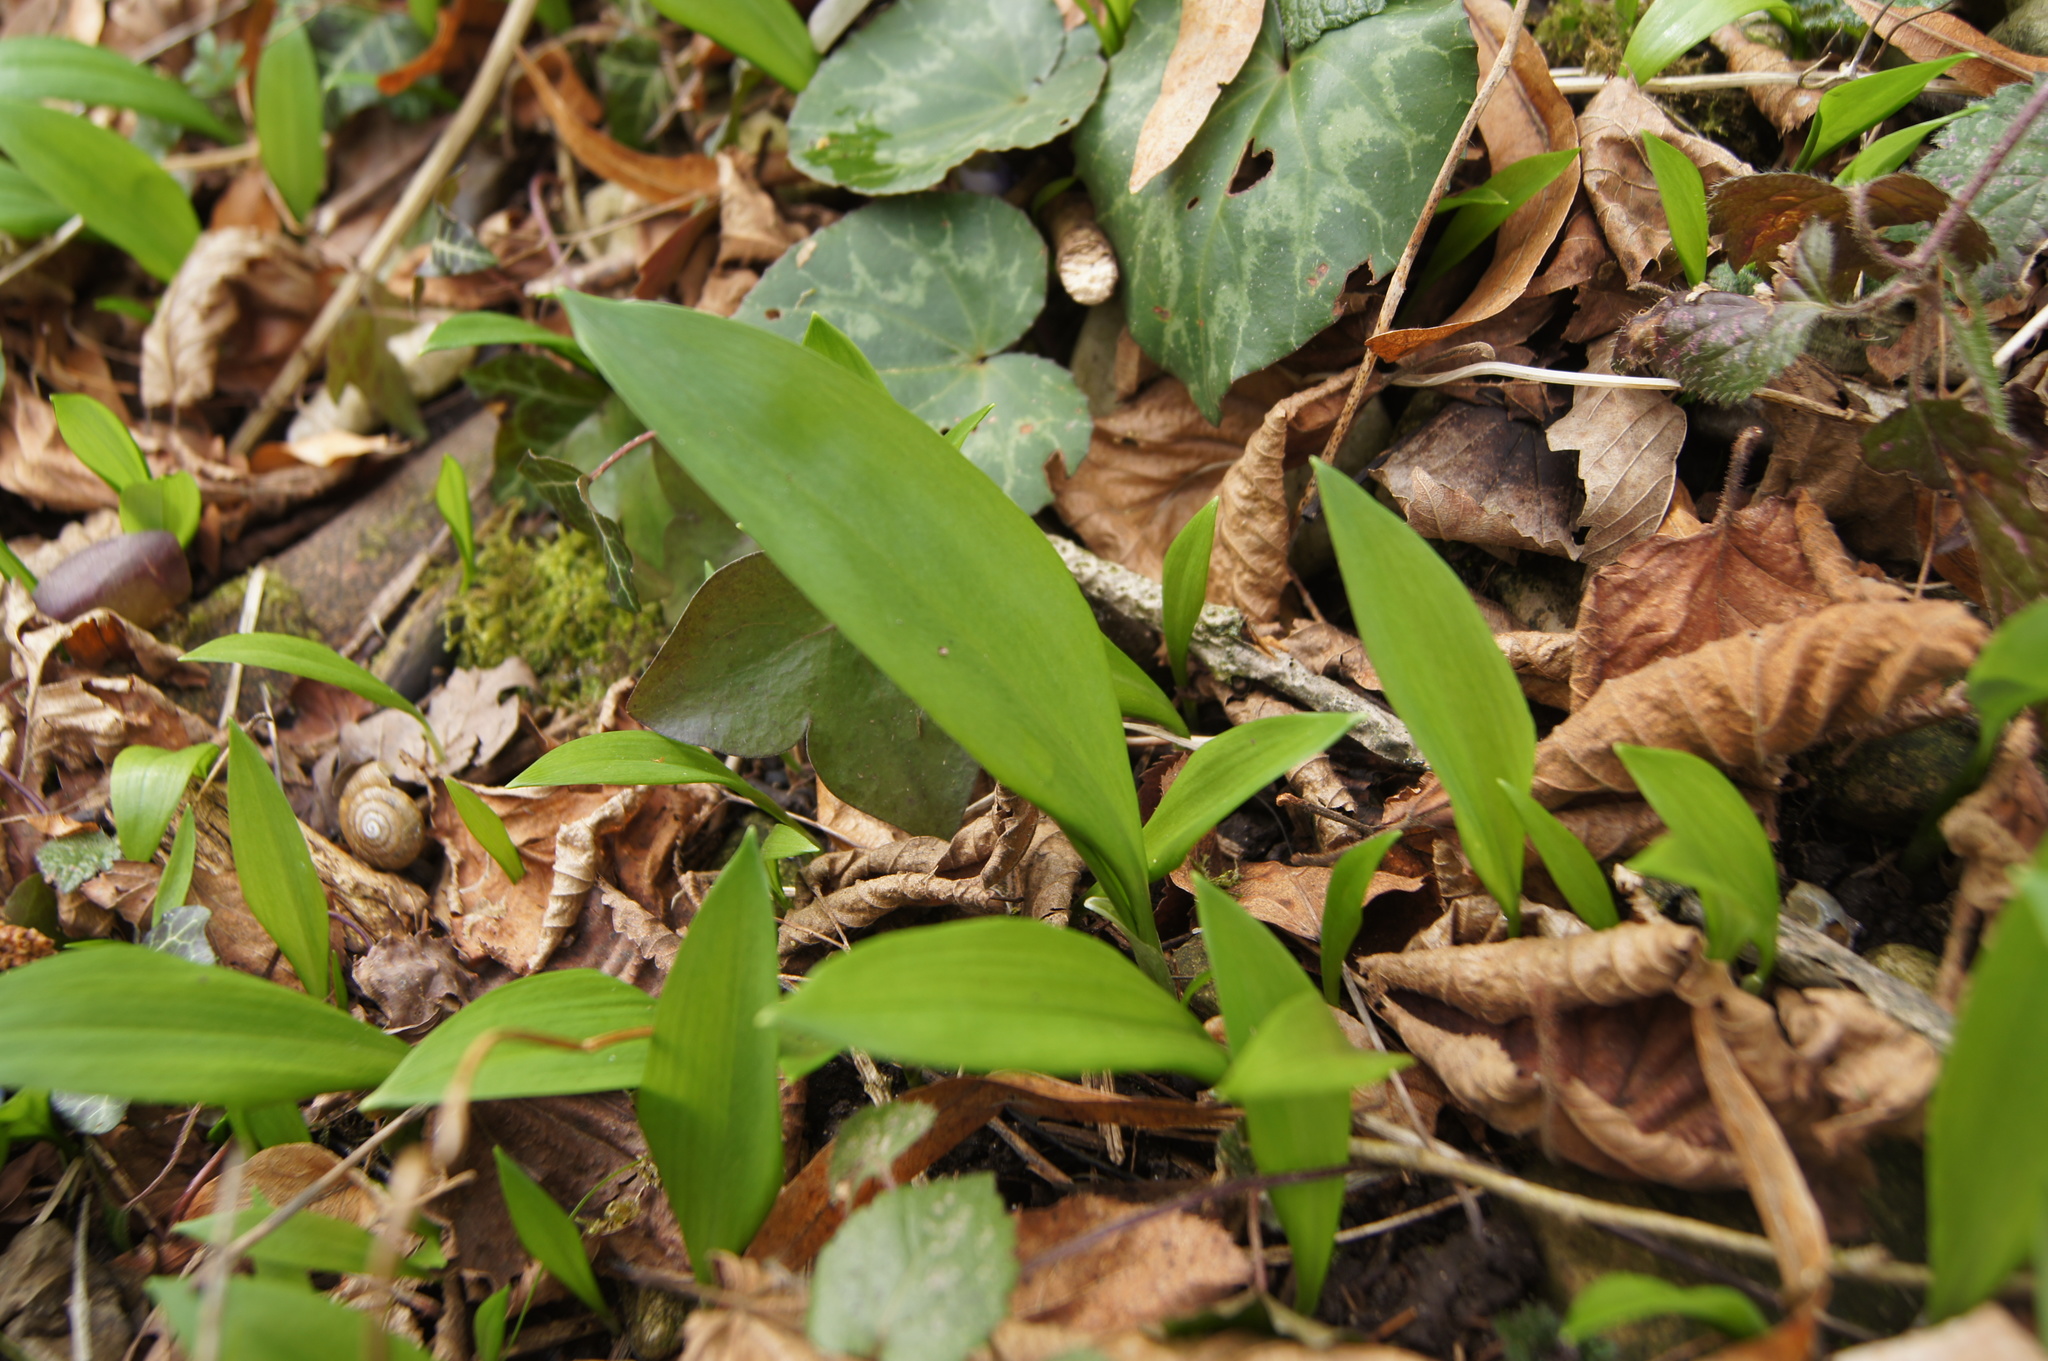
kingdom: Plantae
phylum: Tracheophyta
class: Liliopsida
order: Asparagales
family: Amaryllidaceae
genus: Allium
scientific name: Allium ursinum
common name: Ramsons
